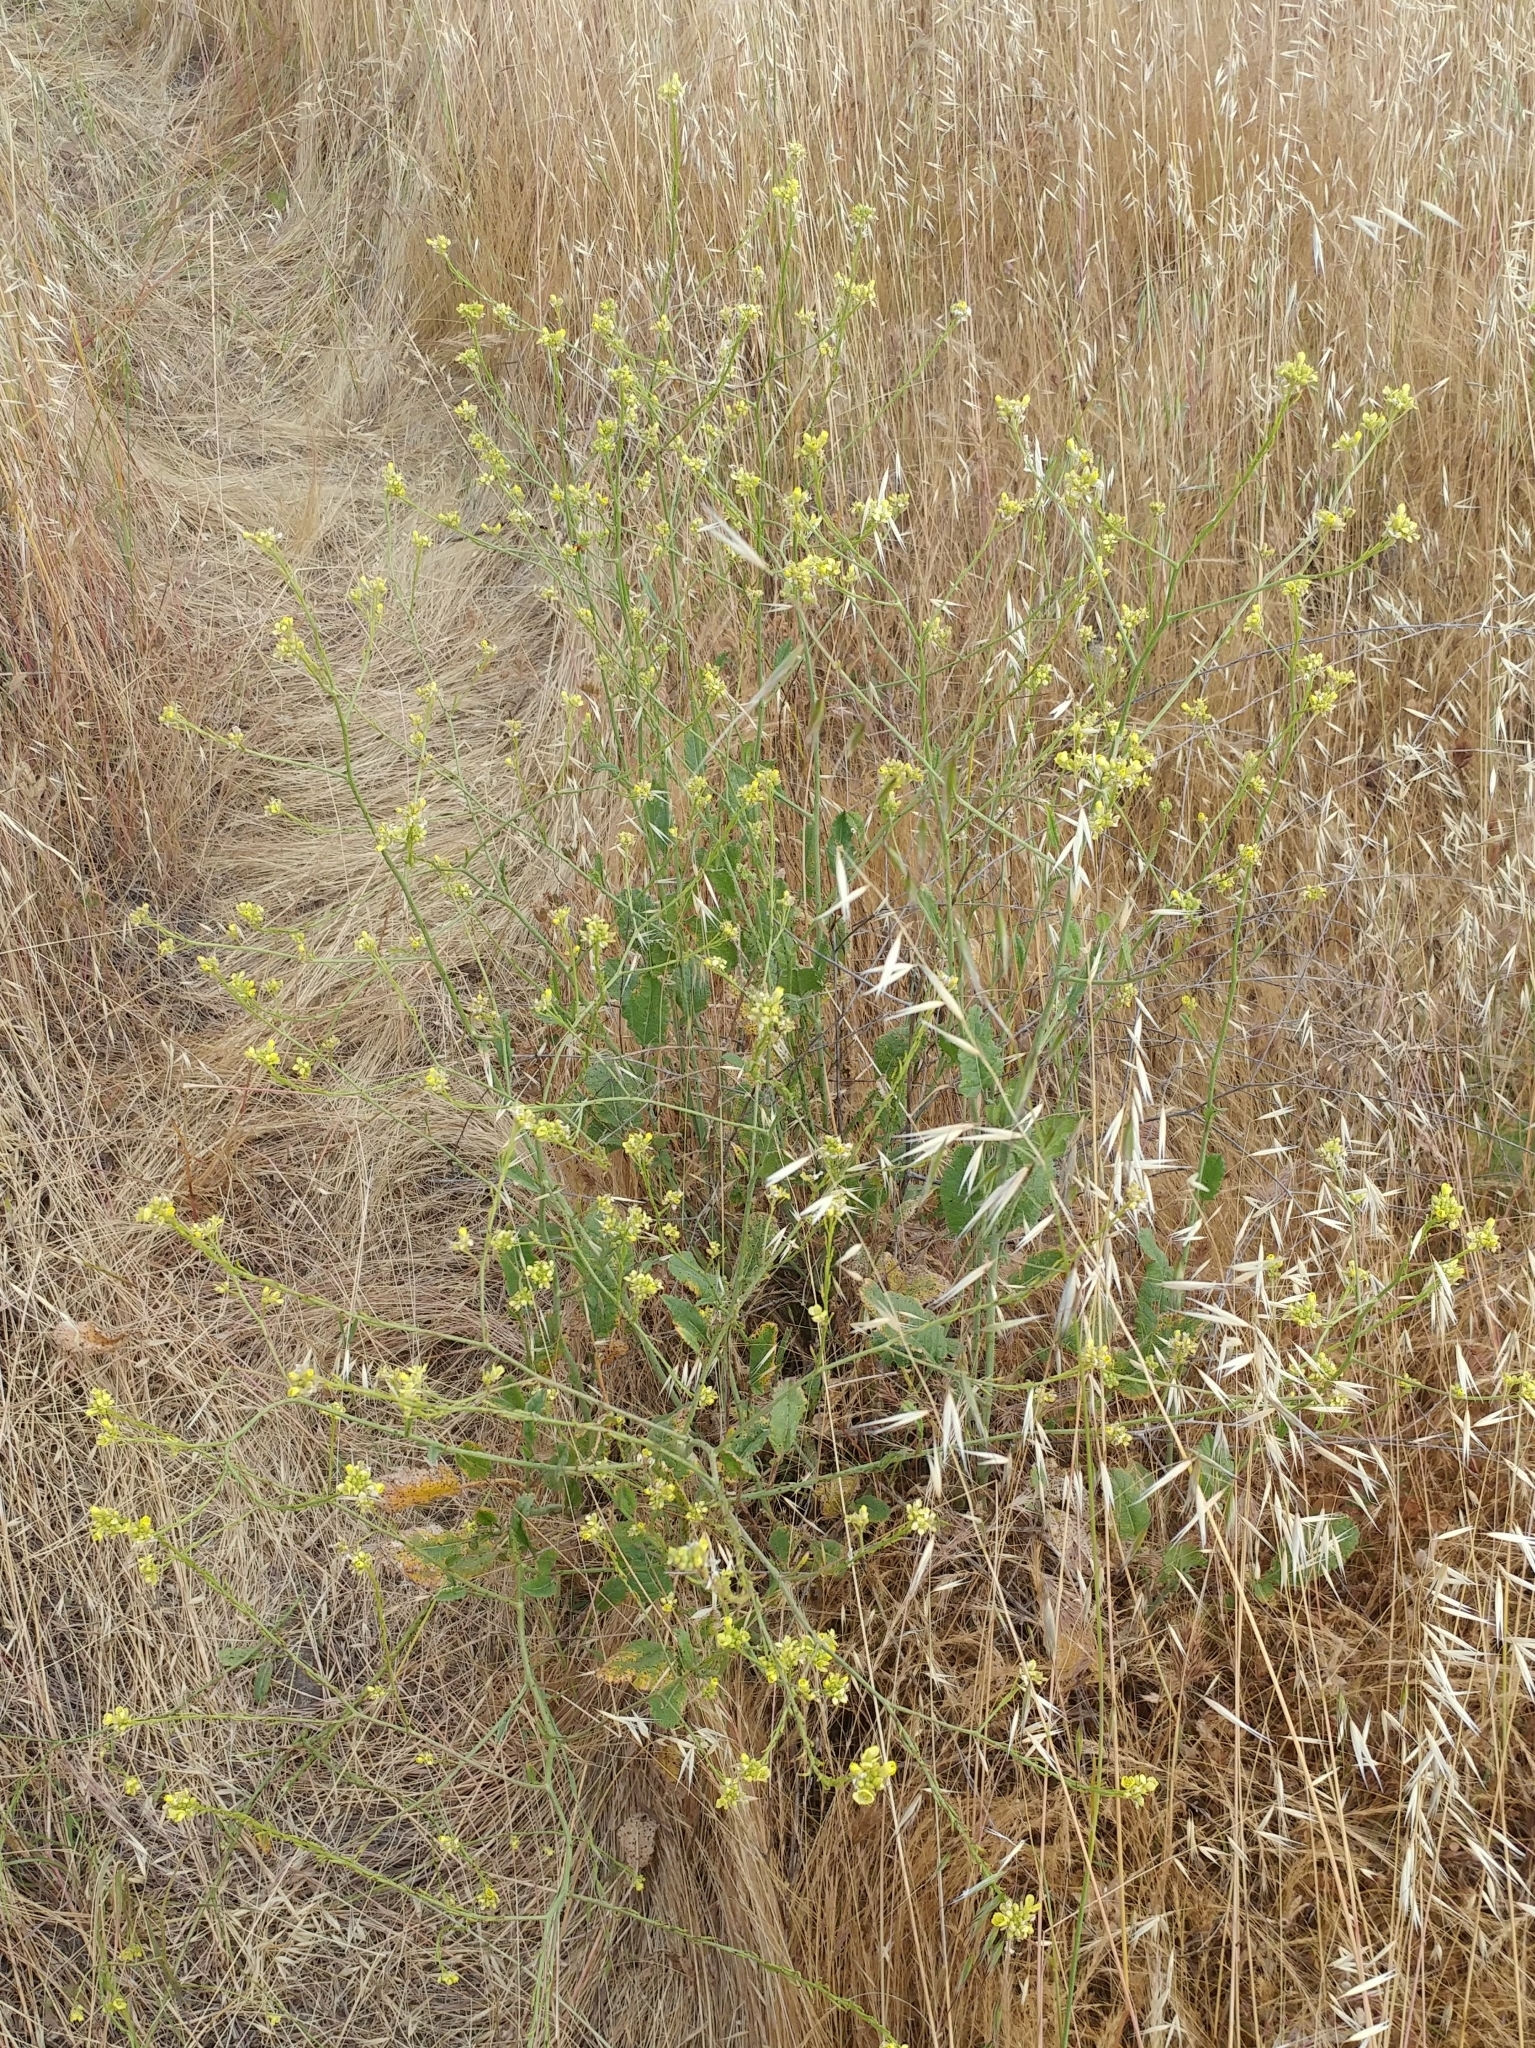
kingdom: Plantae
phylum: Tracheophyta
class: Magnoliopsida
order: Brassicales
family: Brassicaceae
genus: Hirschfeldia
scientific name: Hirschfeldia incana
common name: Hoary mustard
